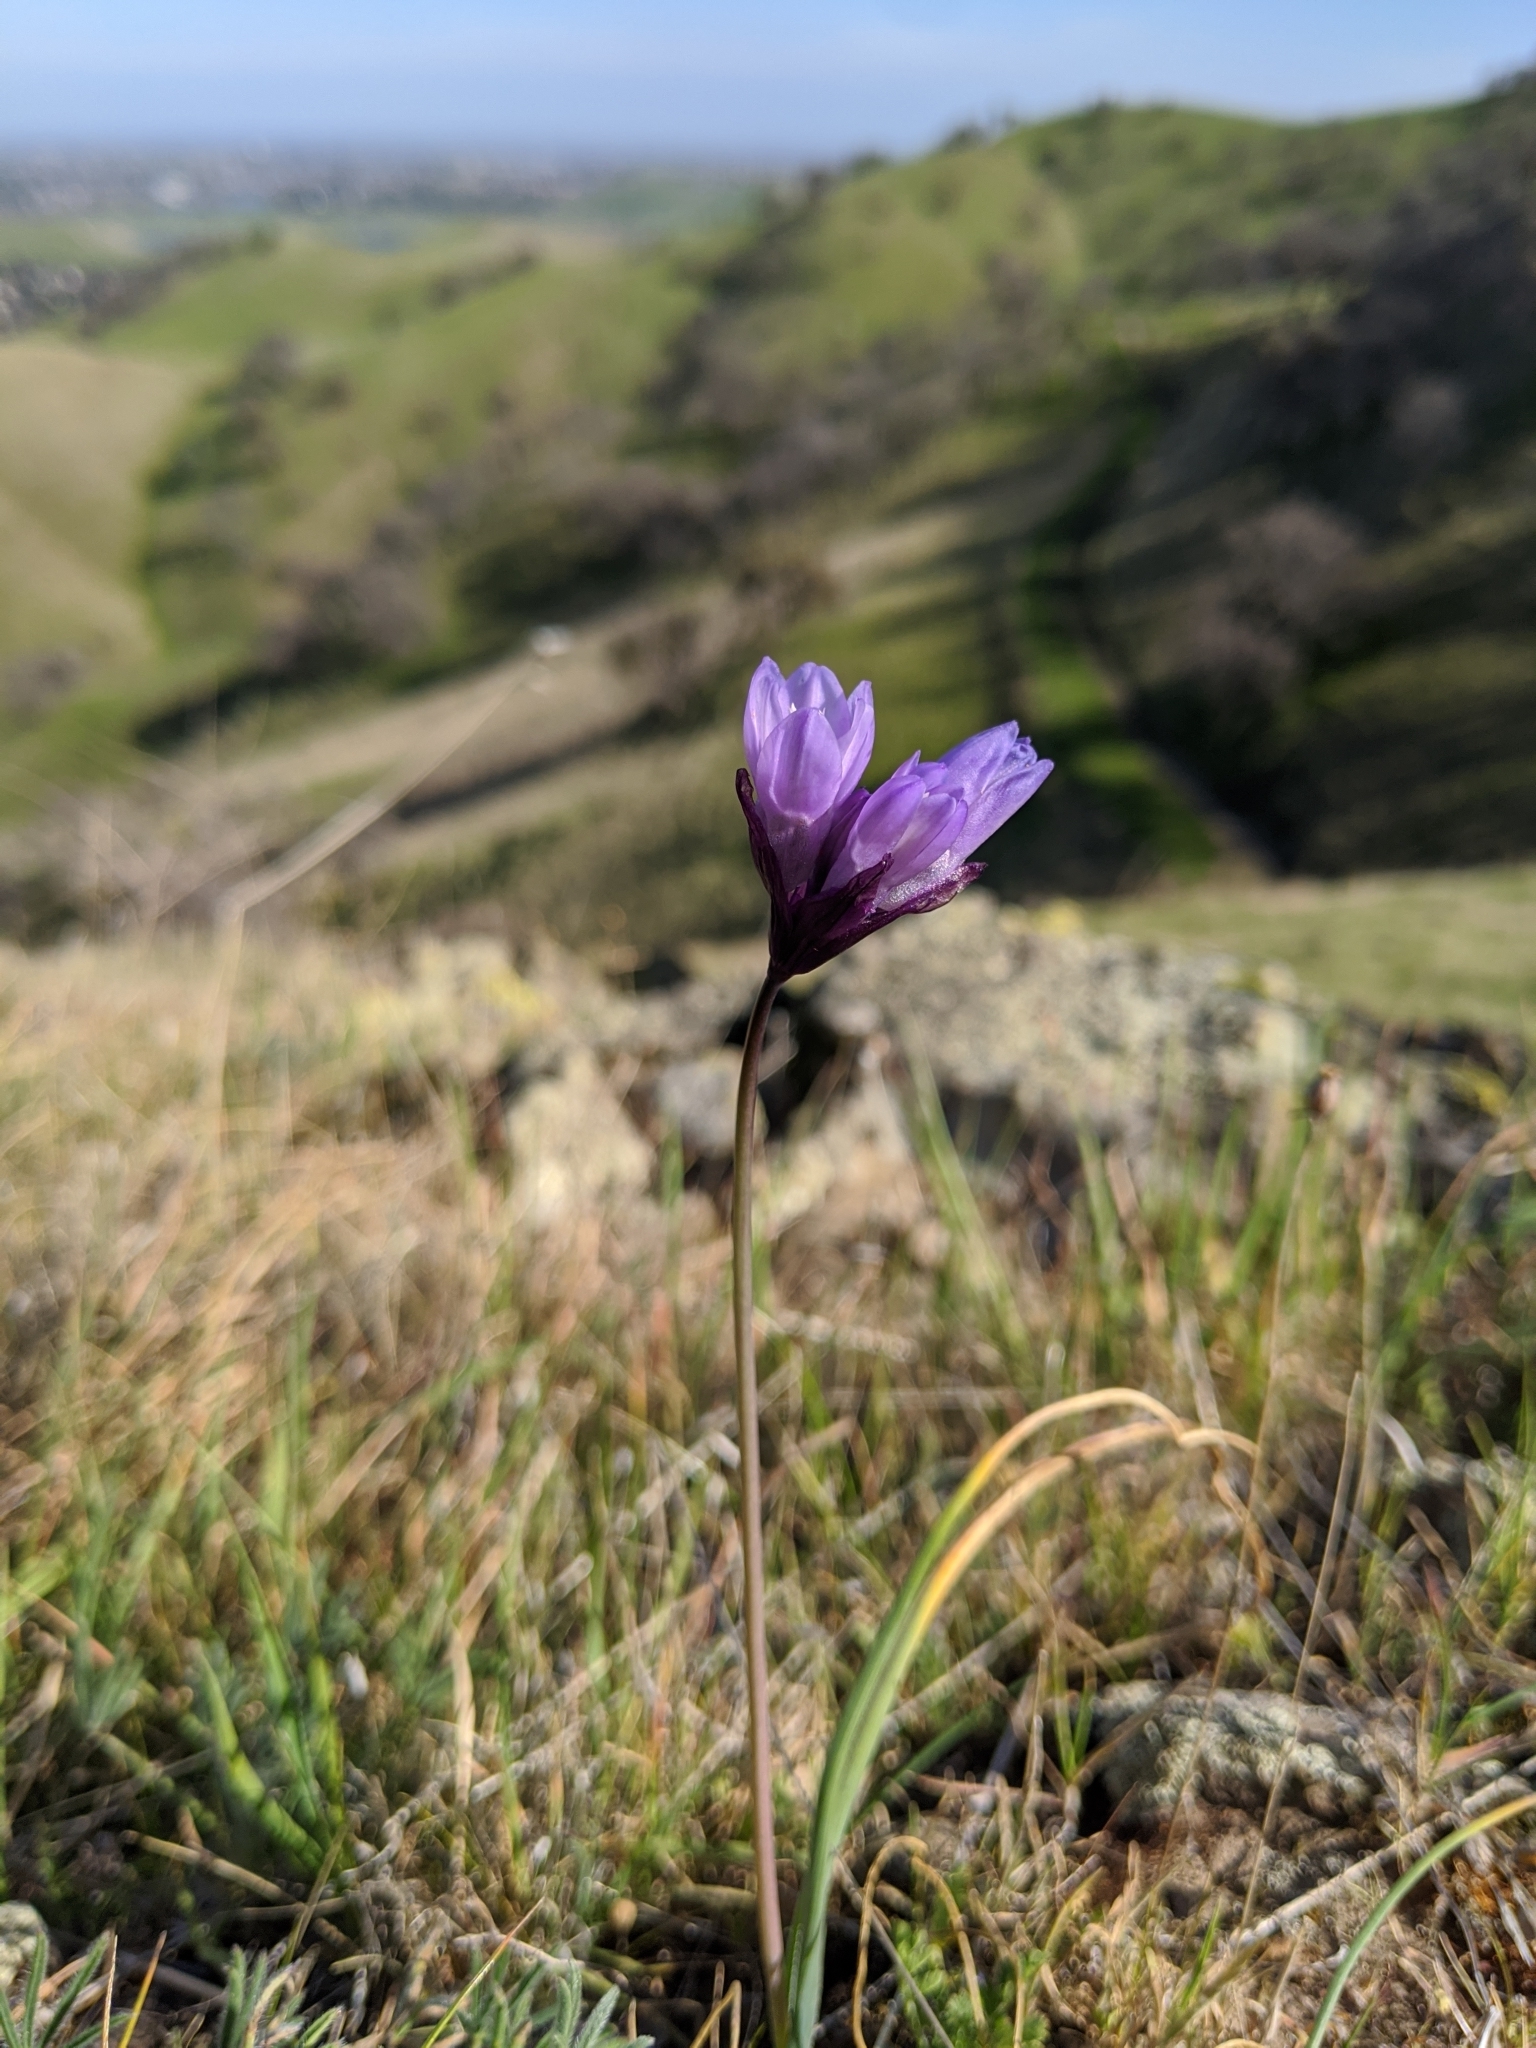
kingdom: Plantae
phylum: Tracheophyta
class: Liliopsida
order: Asparagales
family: Asparagaceae
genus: Dipterostemon
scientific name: Dipterostemon capitatus
